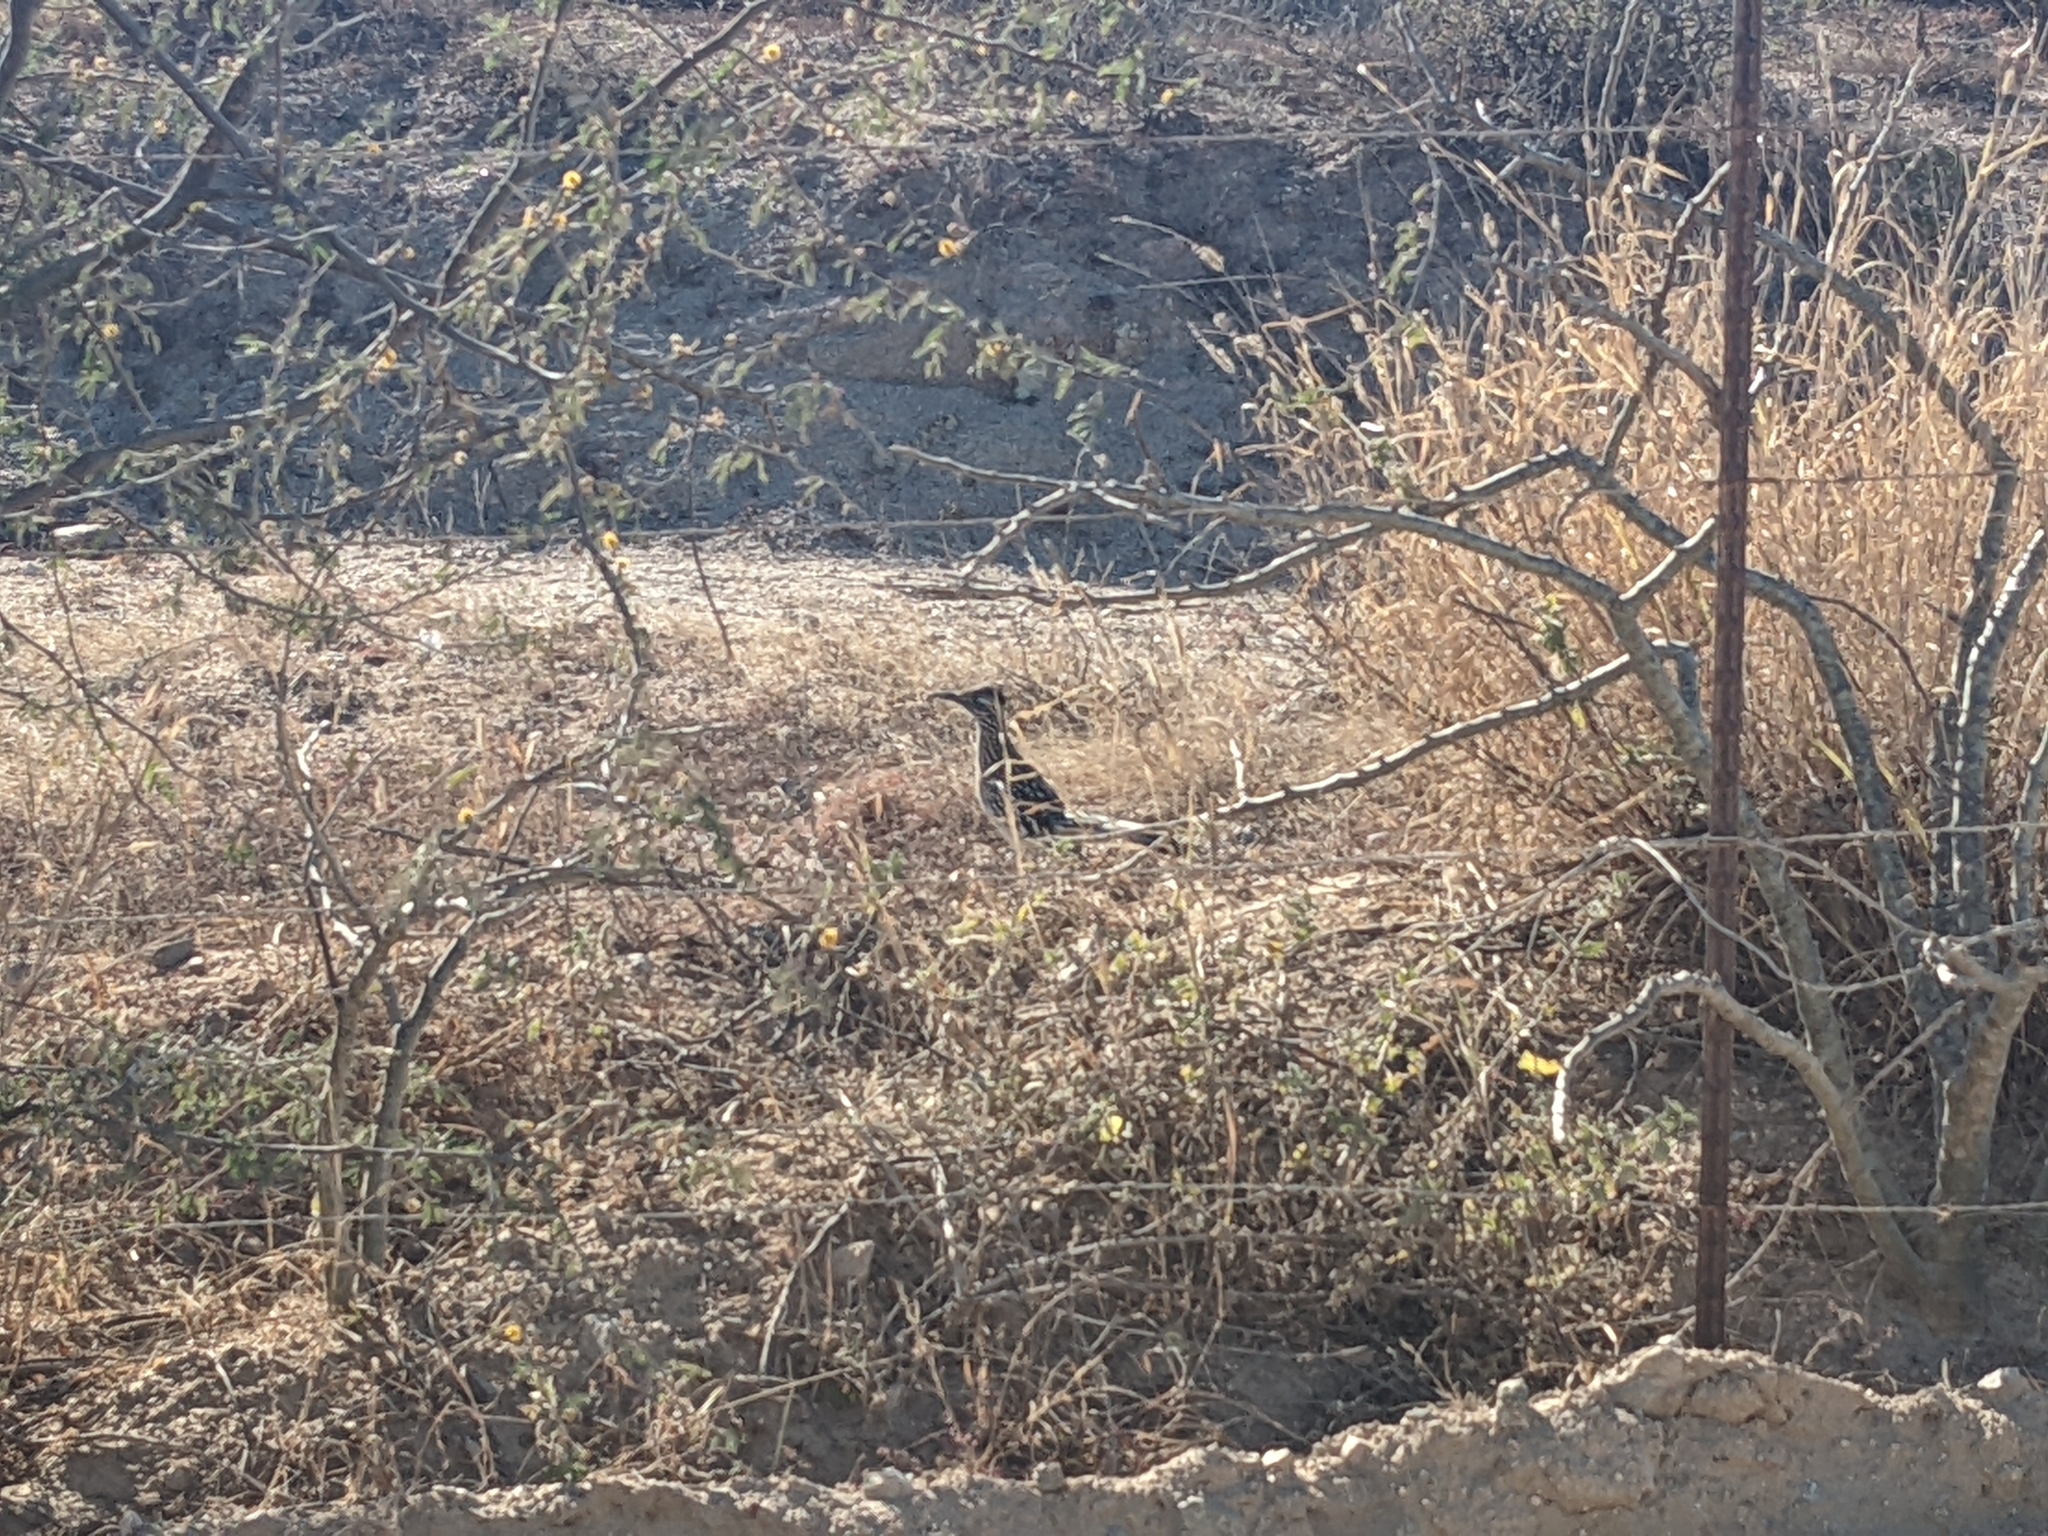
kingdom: Animalia
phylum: Chordata
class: Aves
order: Cuculiformes
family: Cuculidae
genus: Geococcyx
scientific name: Geococcyx californianus
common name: Greater roadrunner
